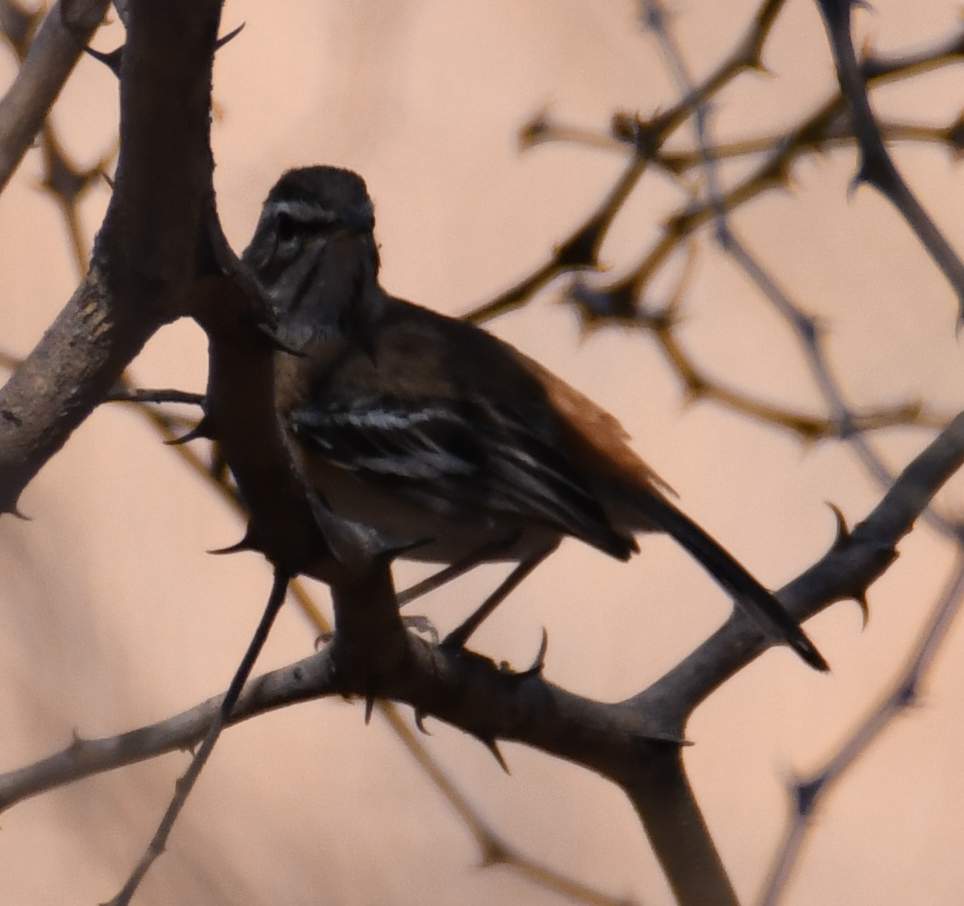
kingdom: Animalia
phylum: Chordata
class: Aves
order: Passeriformes
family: Muscicapidae
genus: Erythropygia
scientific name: Erythropygia leucophrys
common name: White-browed scrub robin
